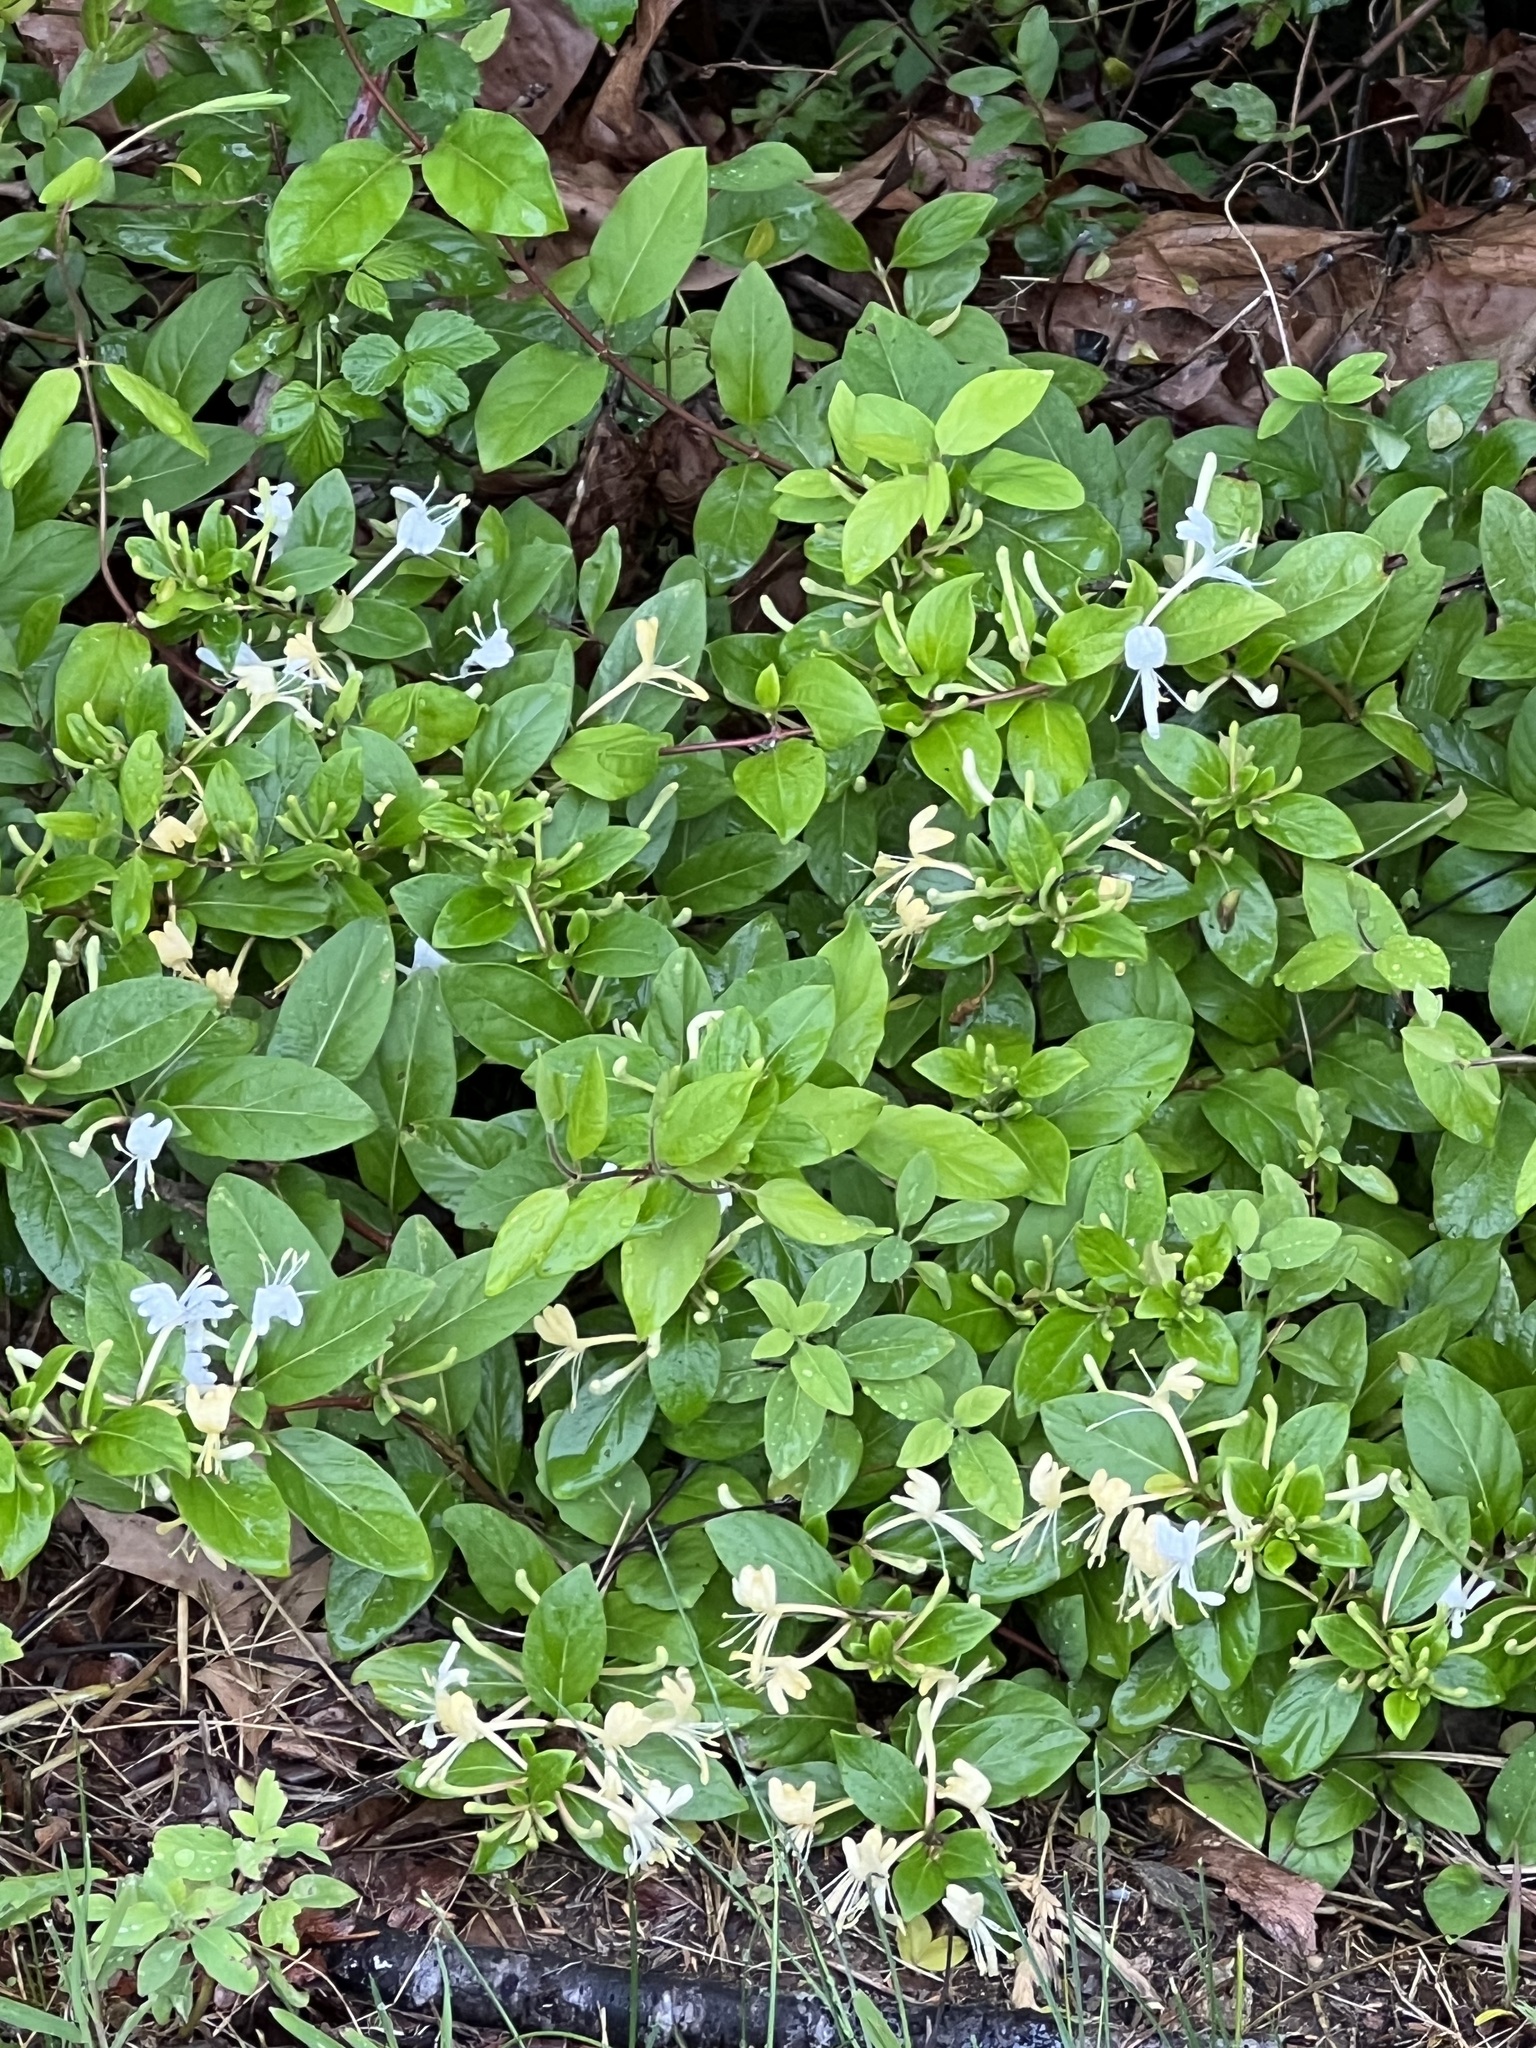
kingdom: Plantae
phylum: Tracheophyta
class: Magnoliopsida
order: Dipsacales
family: Caprifoliaceae
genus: Lonicera
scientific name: Lonicera japonica
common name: Japanese honeysuckle
